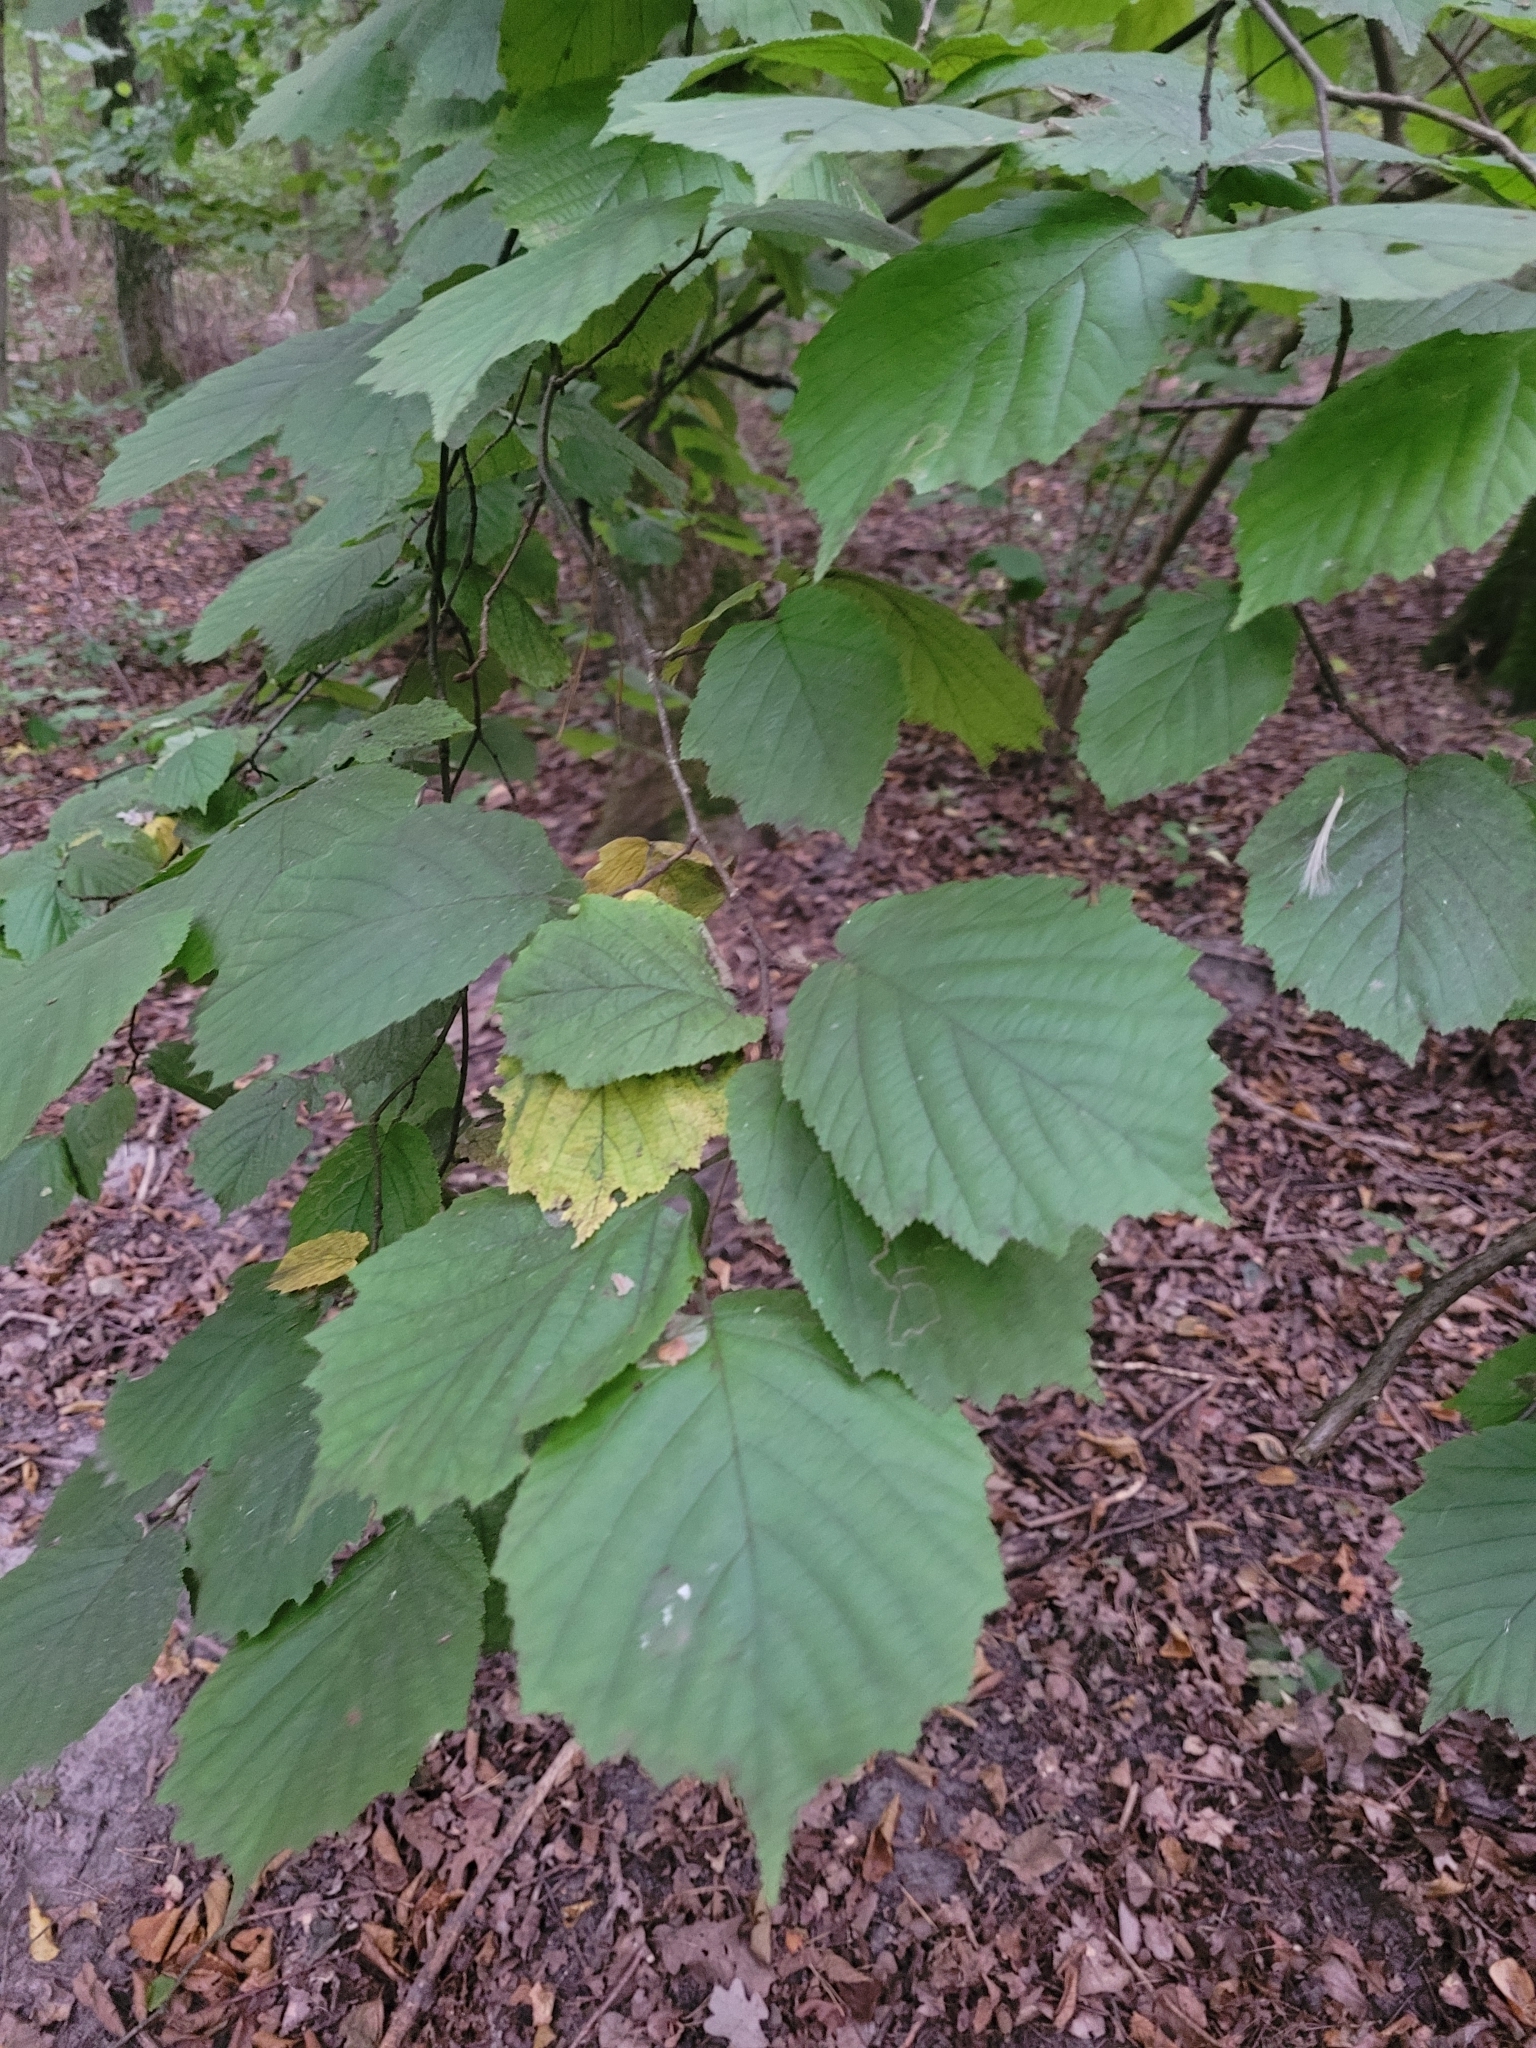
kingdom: Plantae
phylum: Tracheophyta
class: Magnoliopsida
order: Fagales
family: Betulaceae
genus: Corylus
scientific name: Corylus avellana
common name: European hazel
